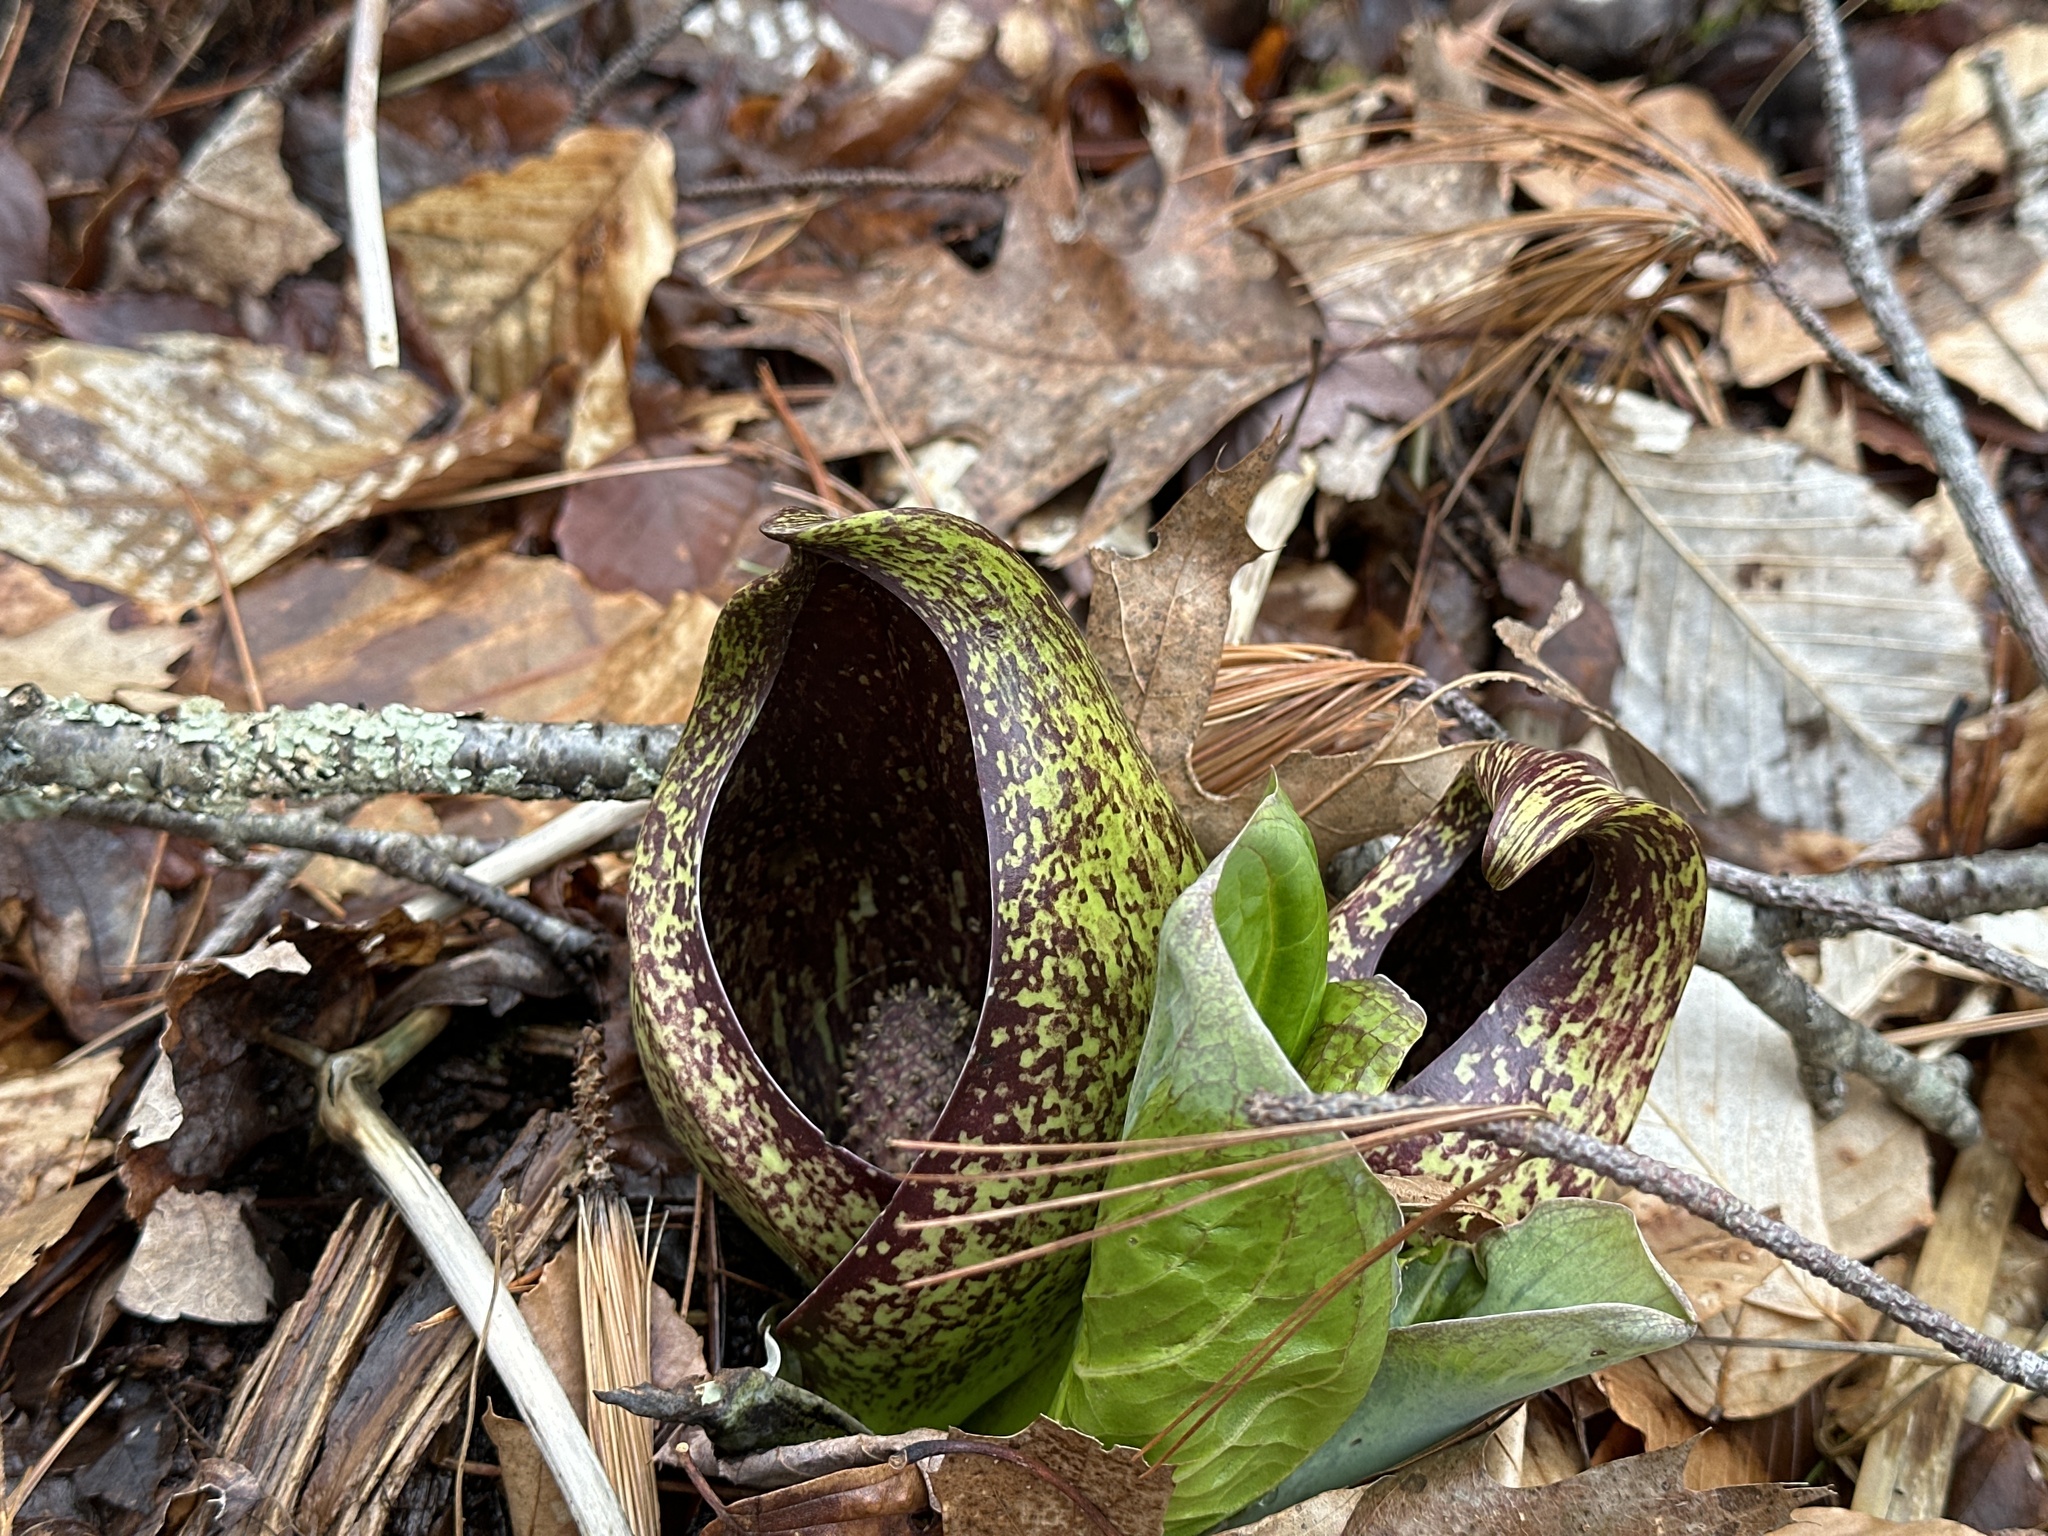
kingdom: Plantae
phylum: Tracheophyta
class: Liliopsida
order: Alismatales
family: Araceae
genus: Symplocarpus
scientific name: Symplocarpus foetidus
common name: Eastern skunk cabbage
